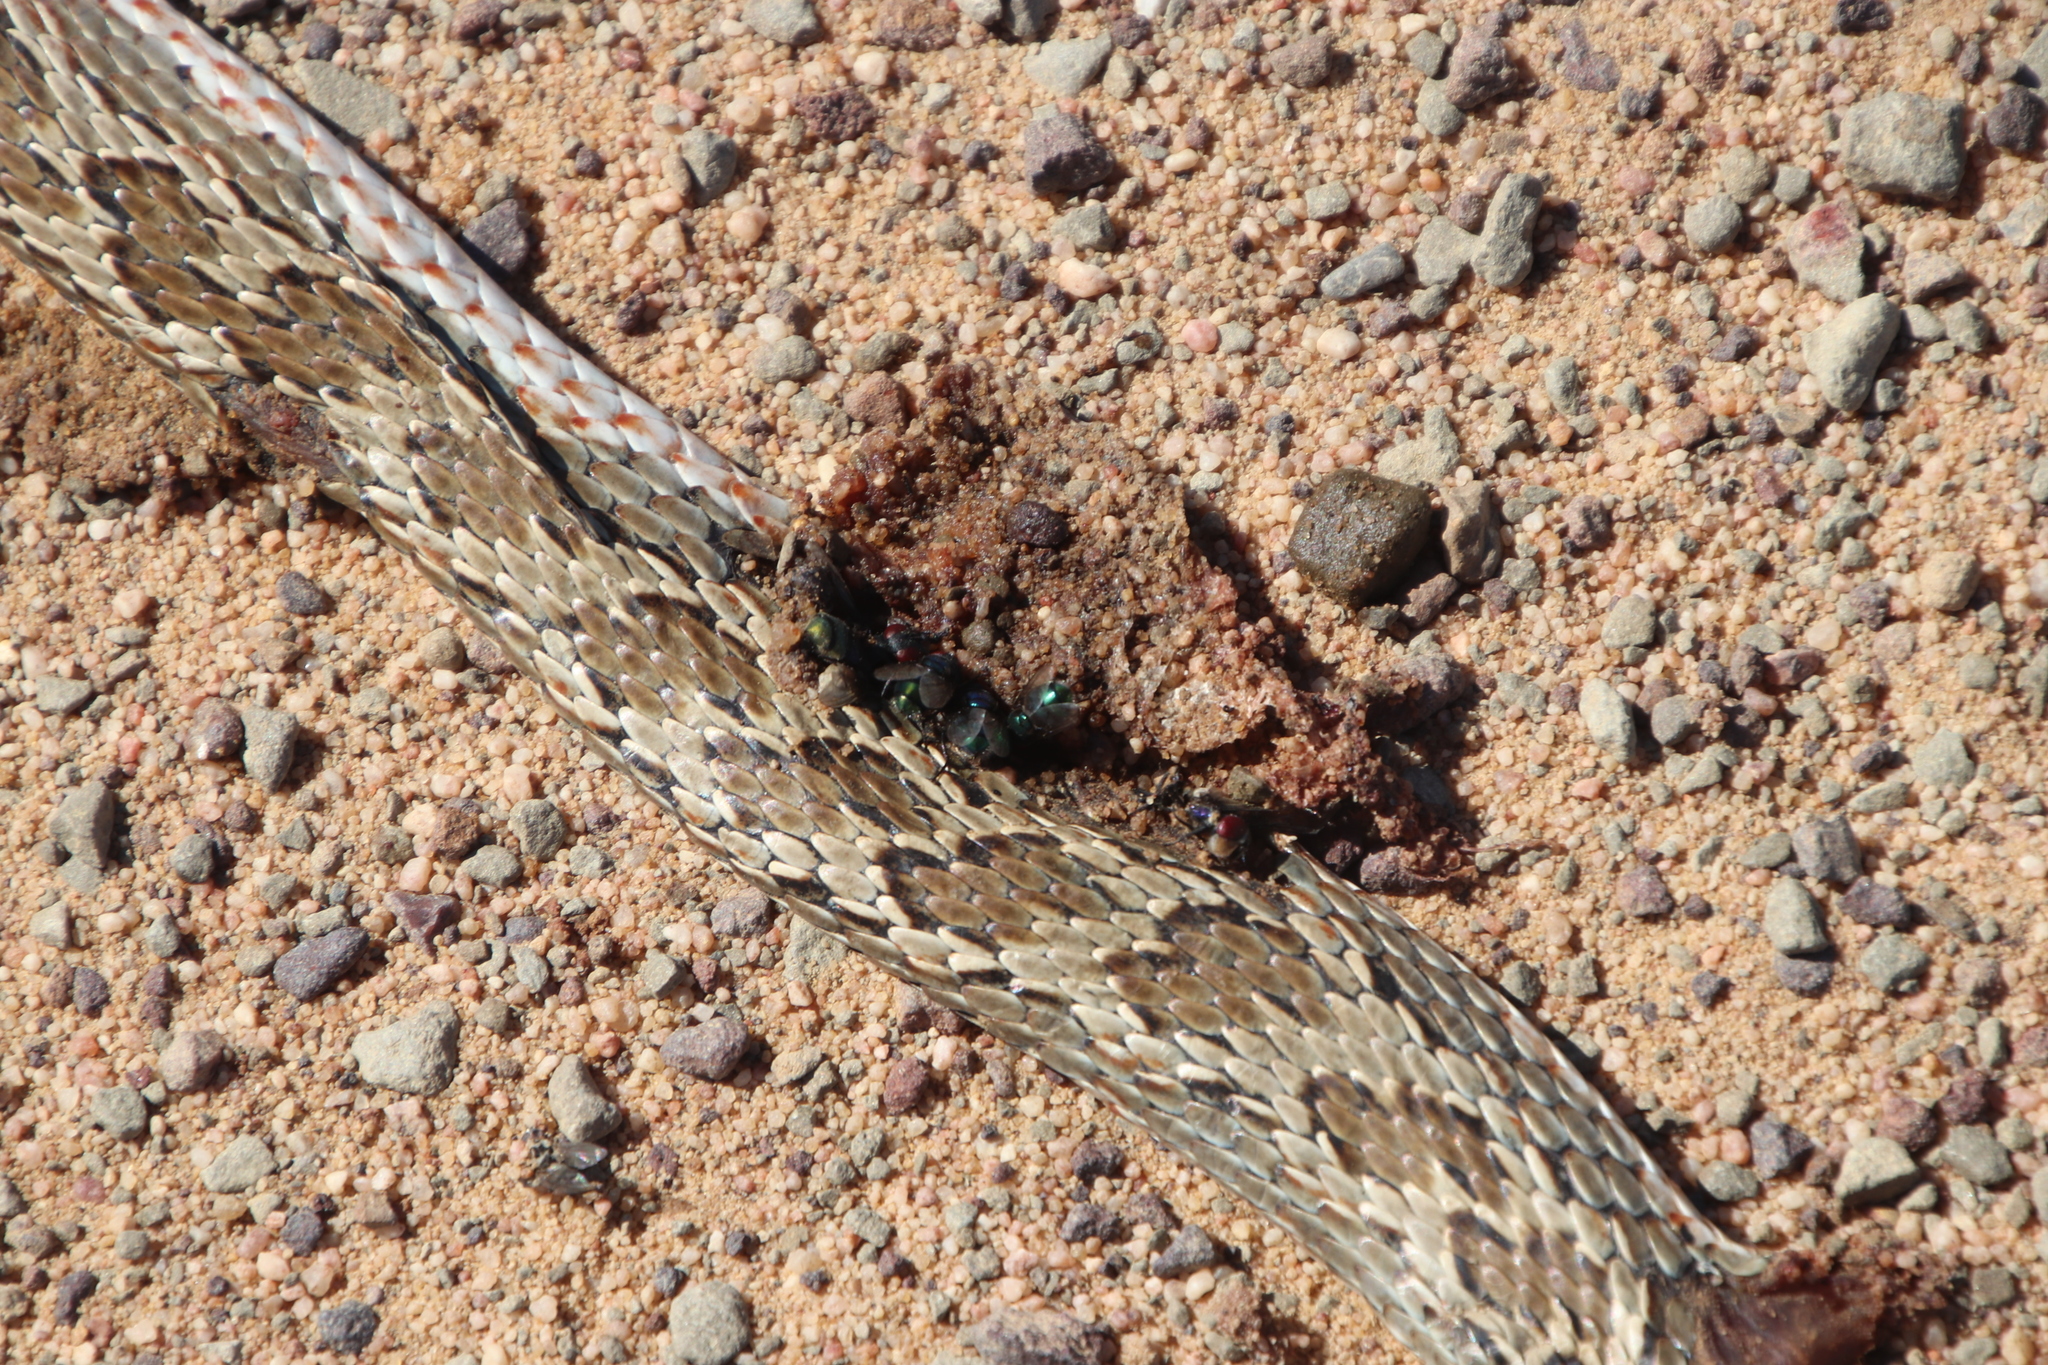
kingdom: Animalia
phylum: Chordata
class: Squamata
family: Psammophiidae
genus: Psammophylax
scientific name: Psammophylax rhombeatus
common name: Rhombic skaapsteker
